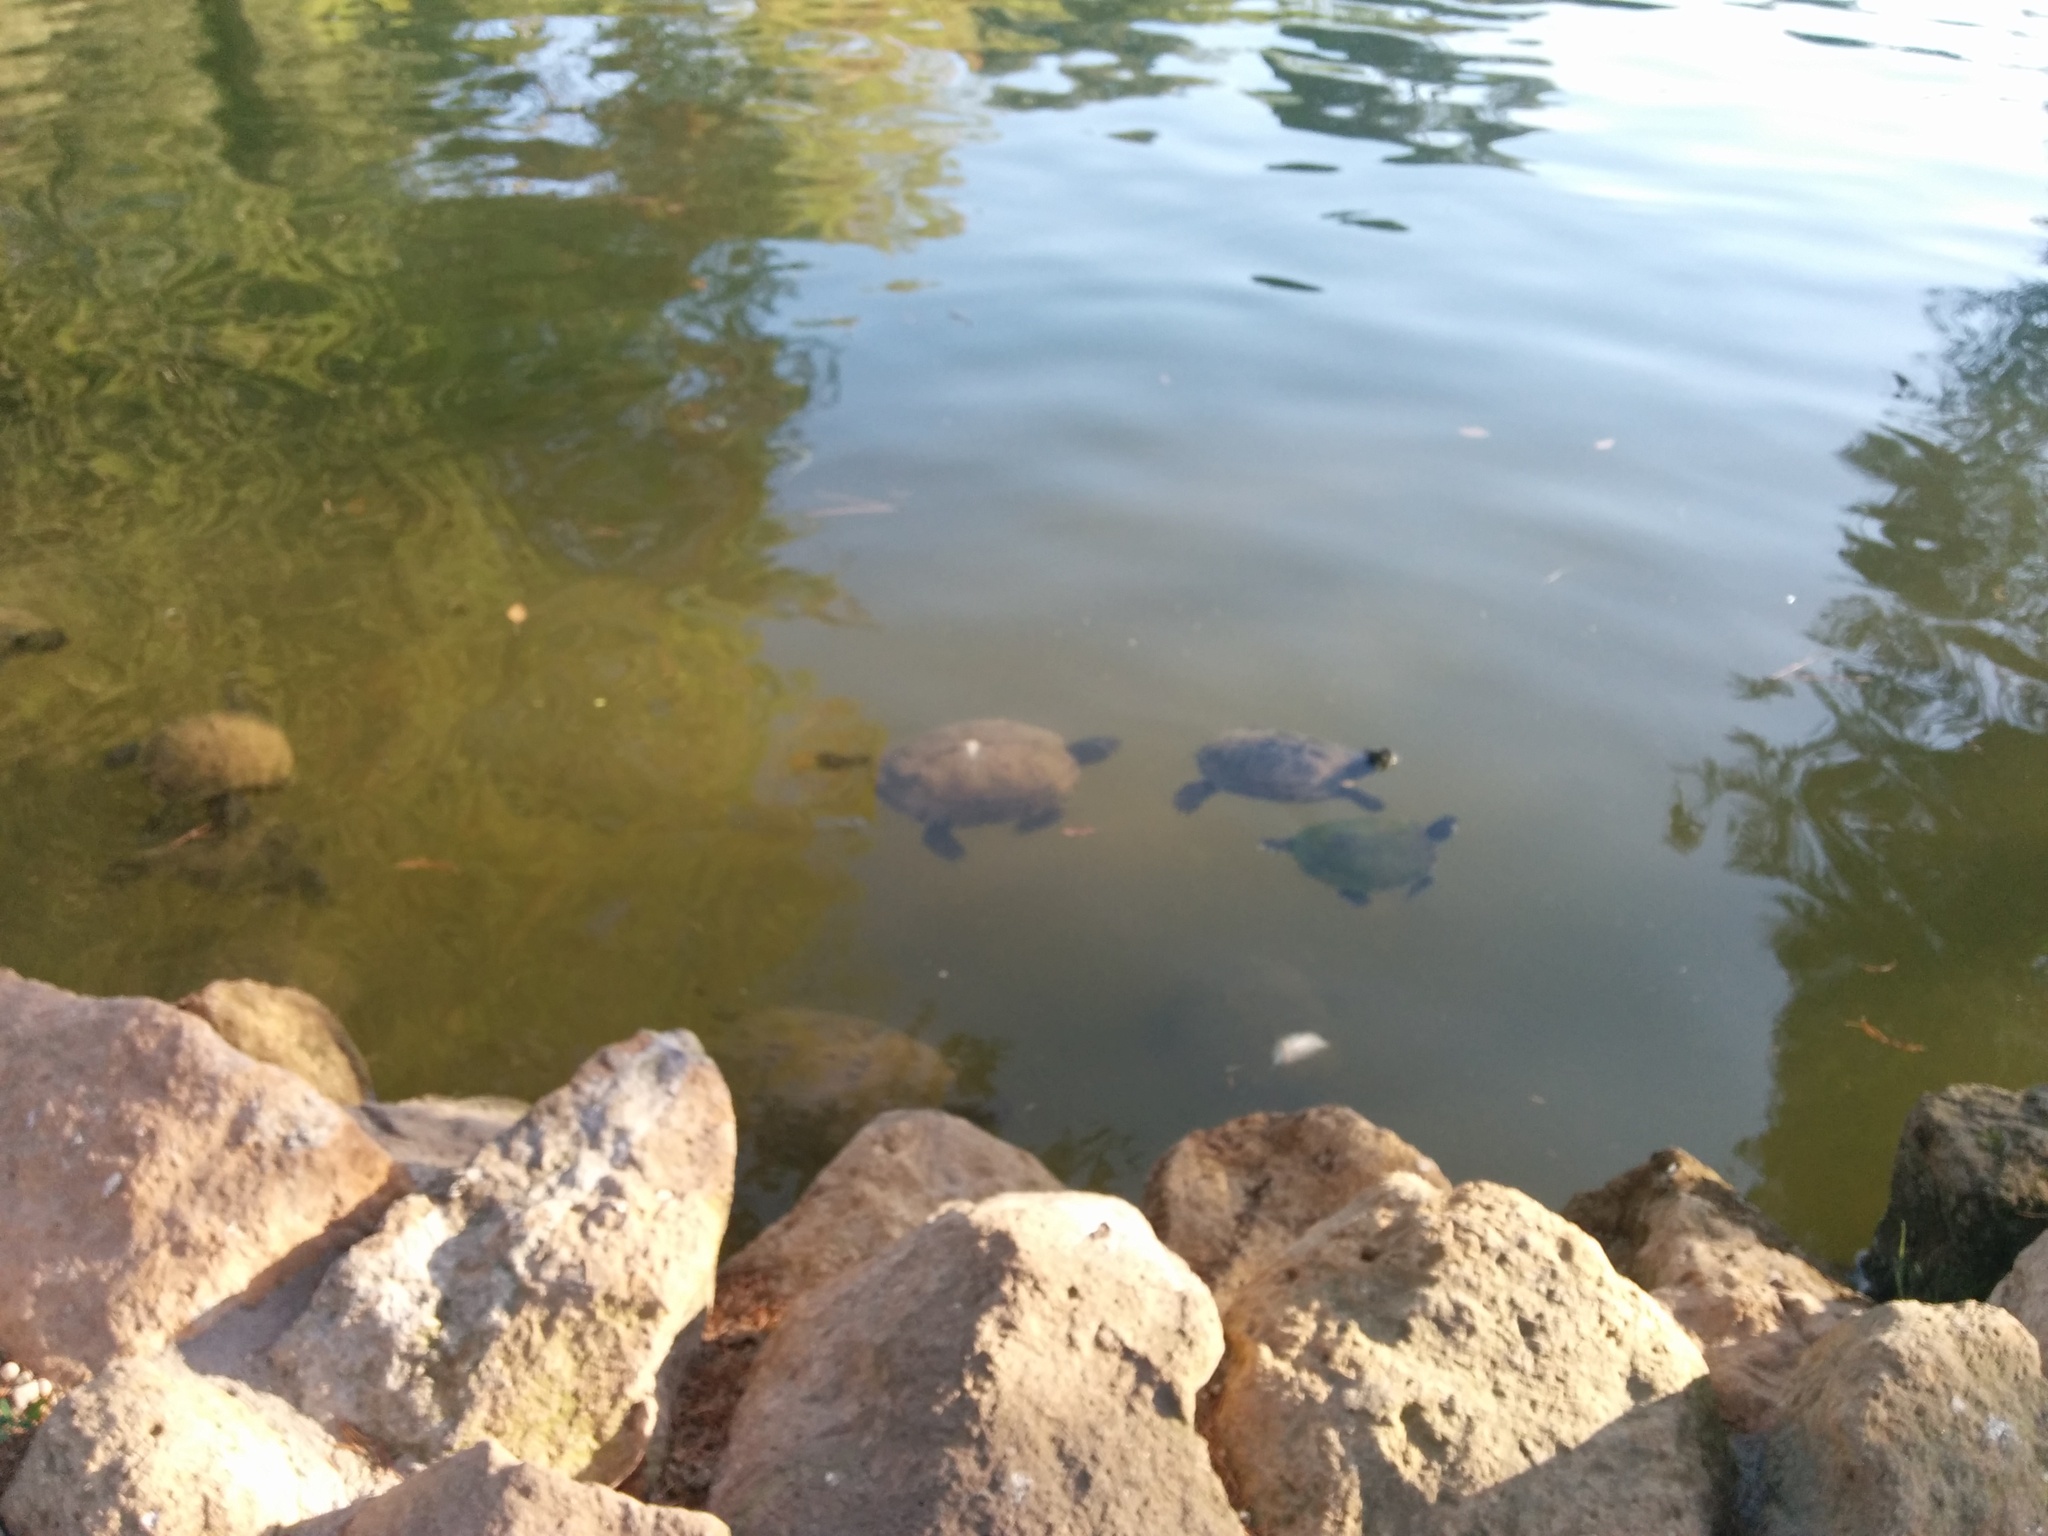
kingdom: Animalia
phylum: Chordata
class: Testudines
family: Emydidae
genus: Trachemys
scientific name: Trachemys scripta
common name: Slider
